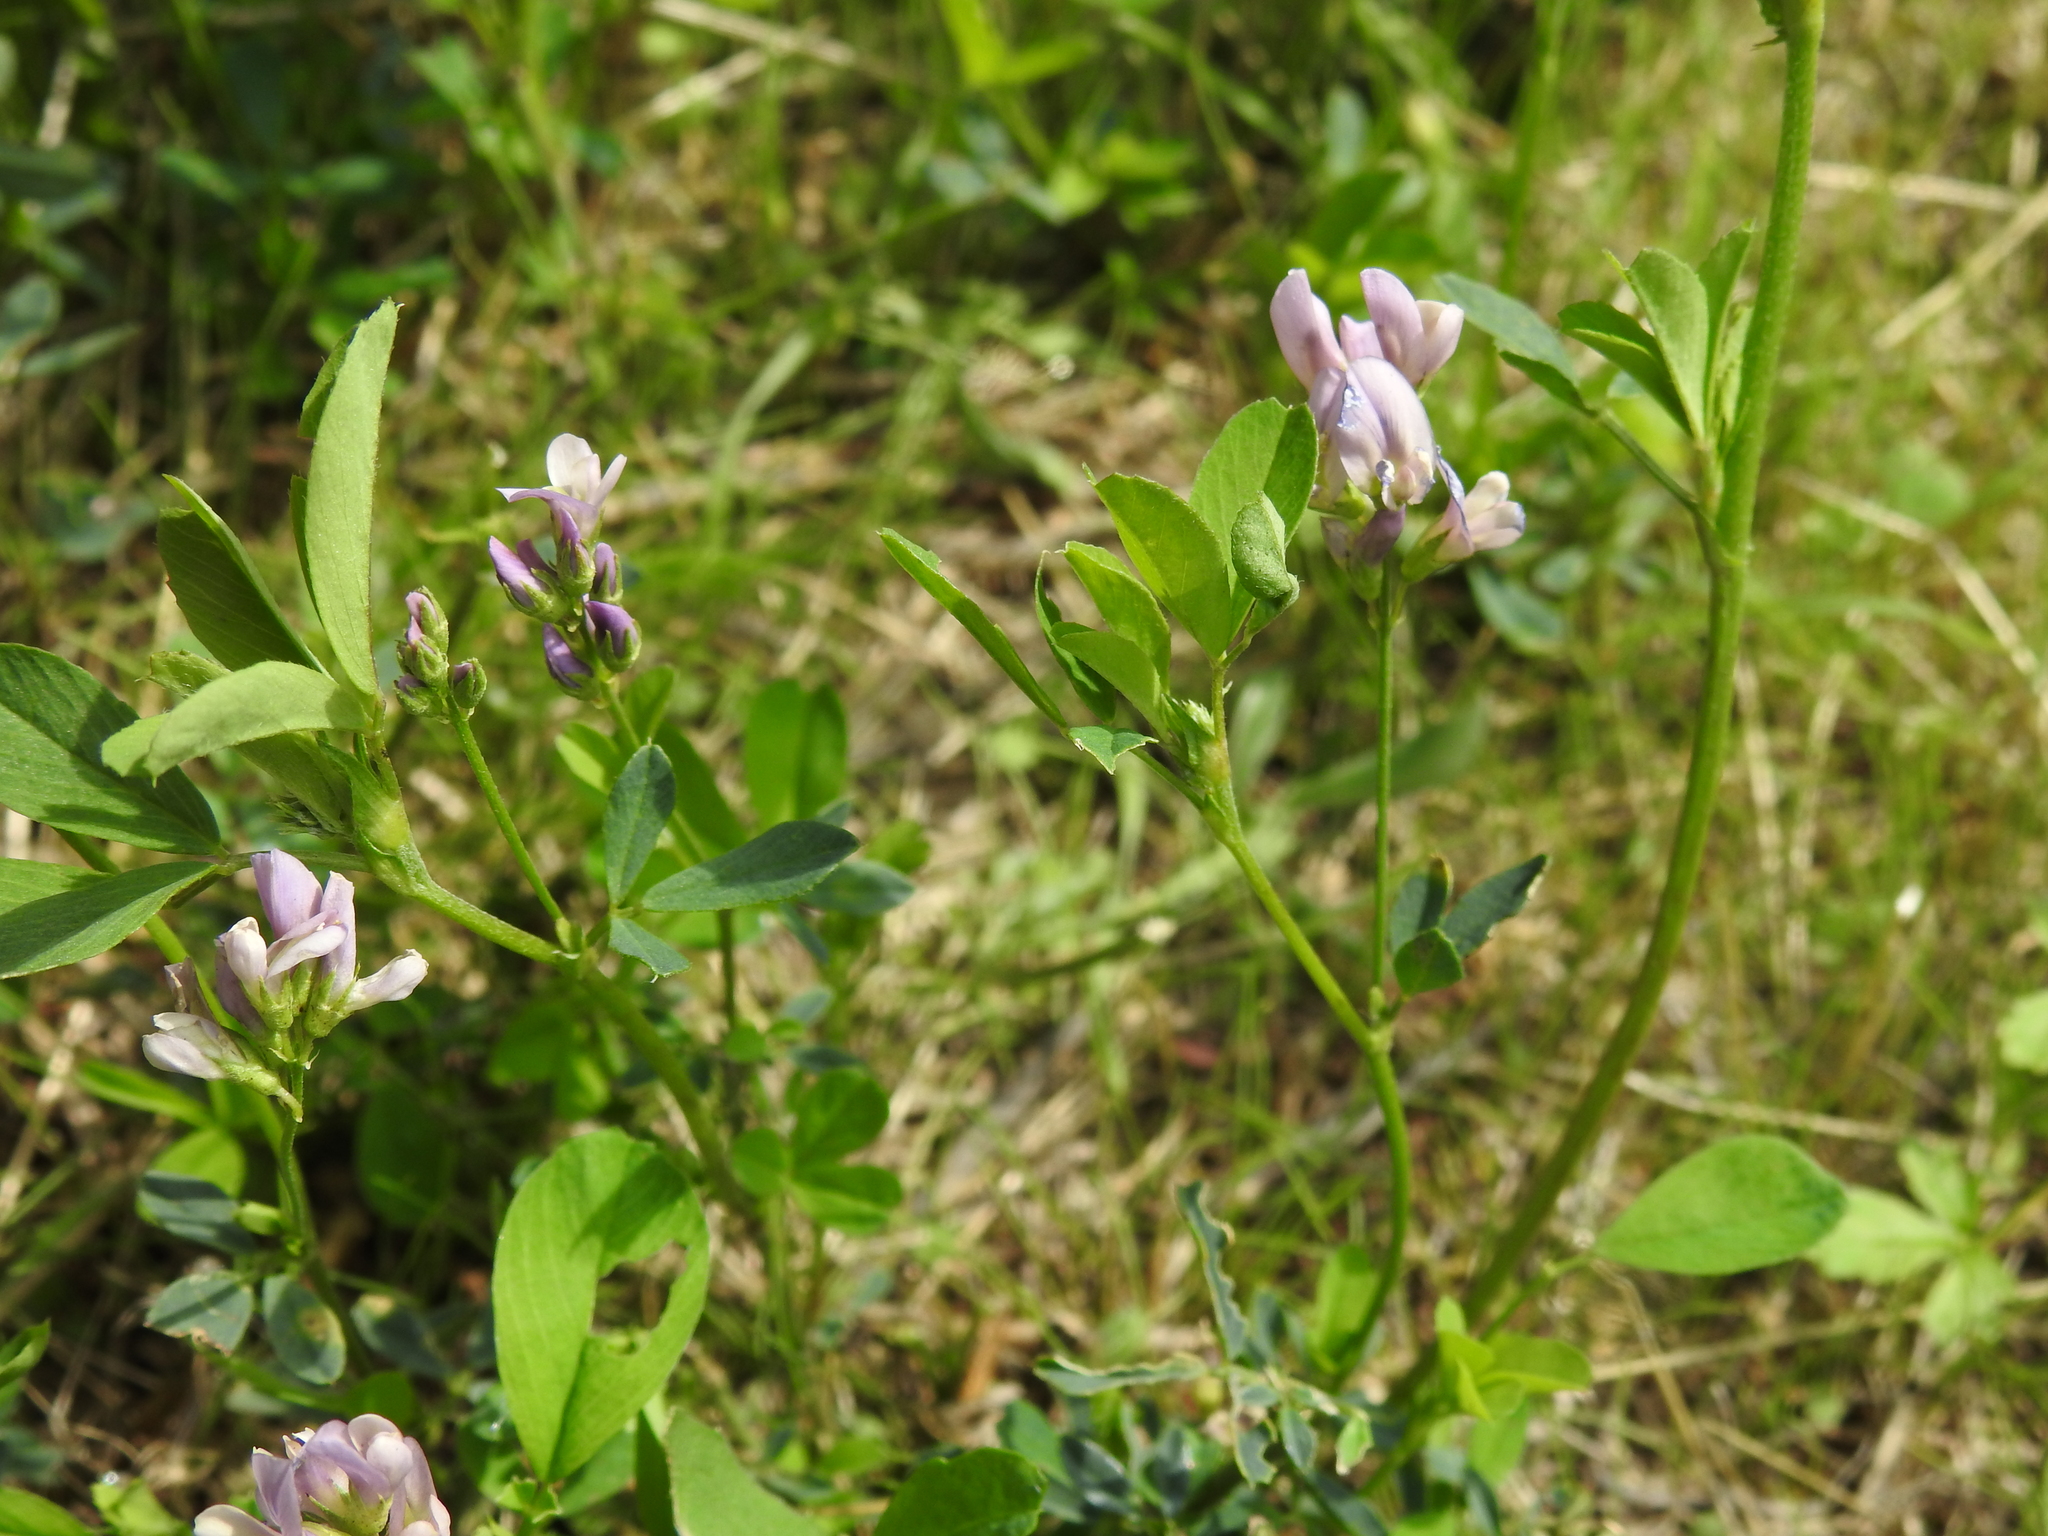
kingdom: Plantae
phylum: Tracheophyta
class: Magnoliopsida
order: Fabales
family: Fabaceae
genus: Medicago
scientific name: Medicago sativa
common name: Alfalfa
